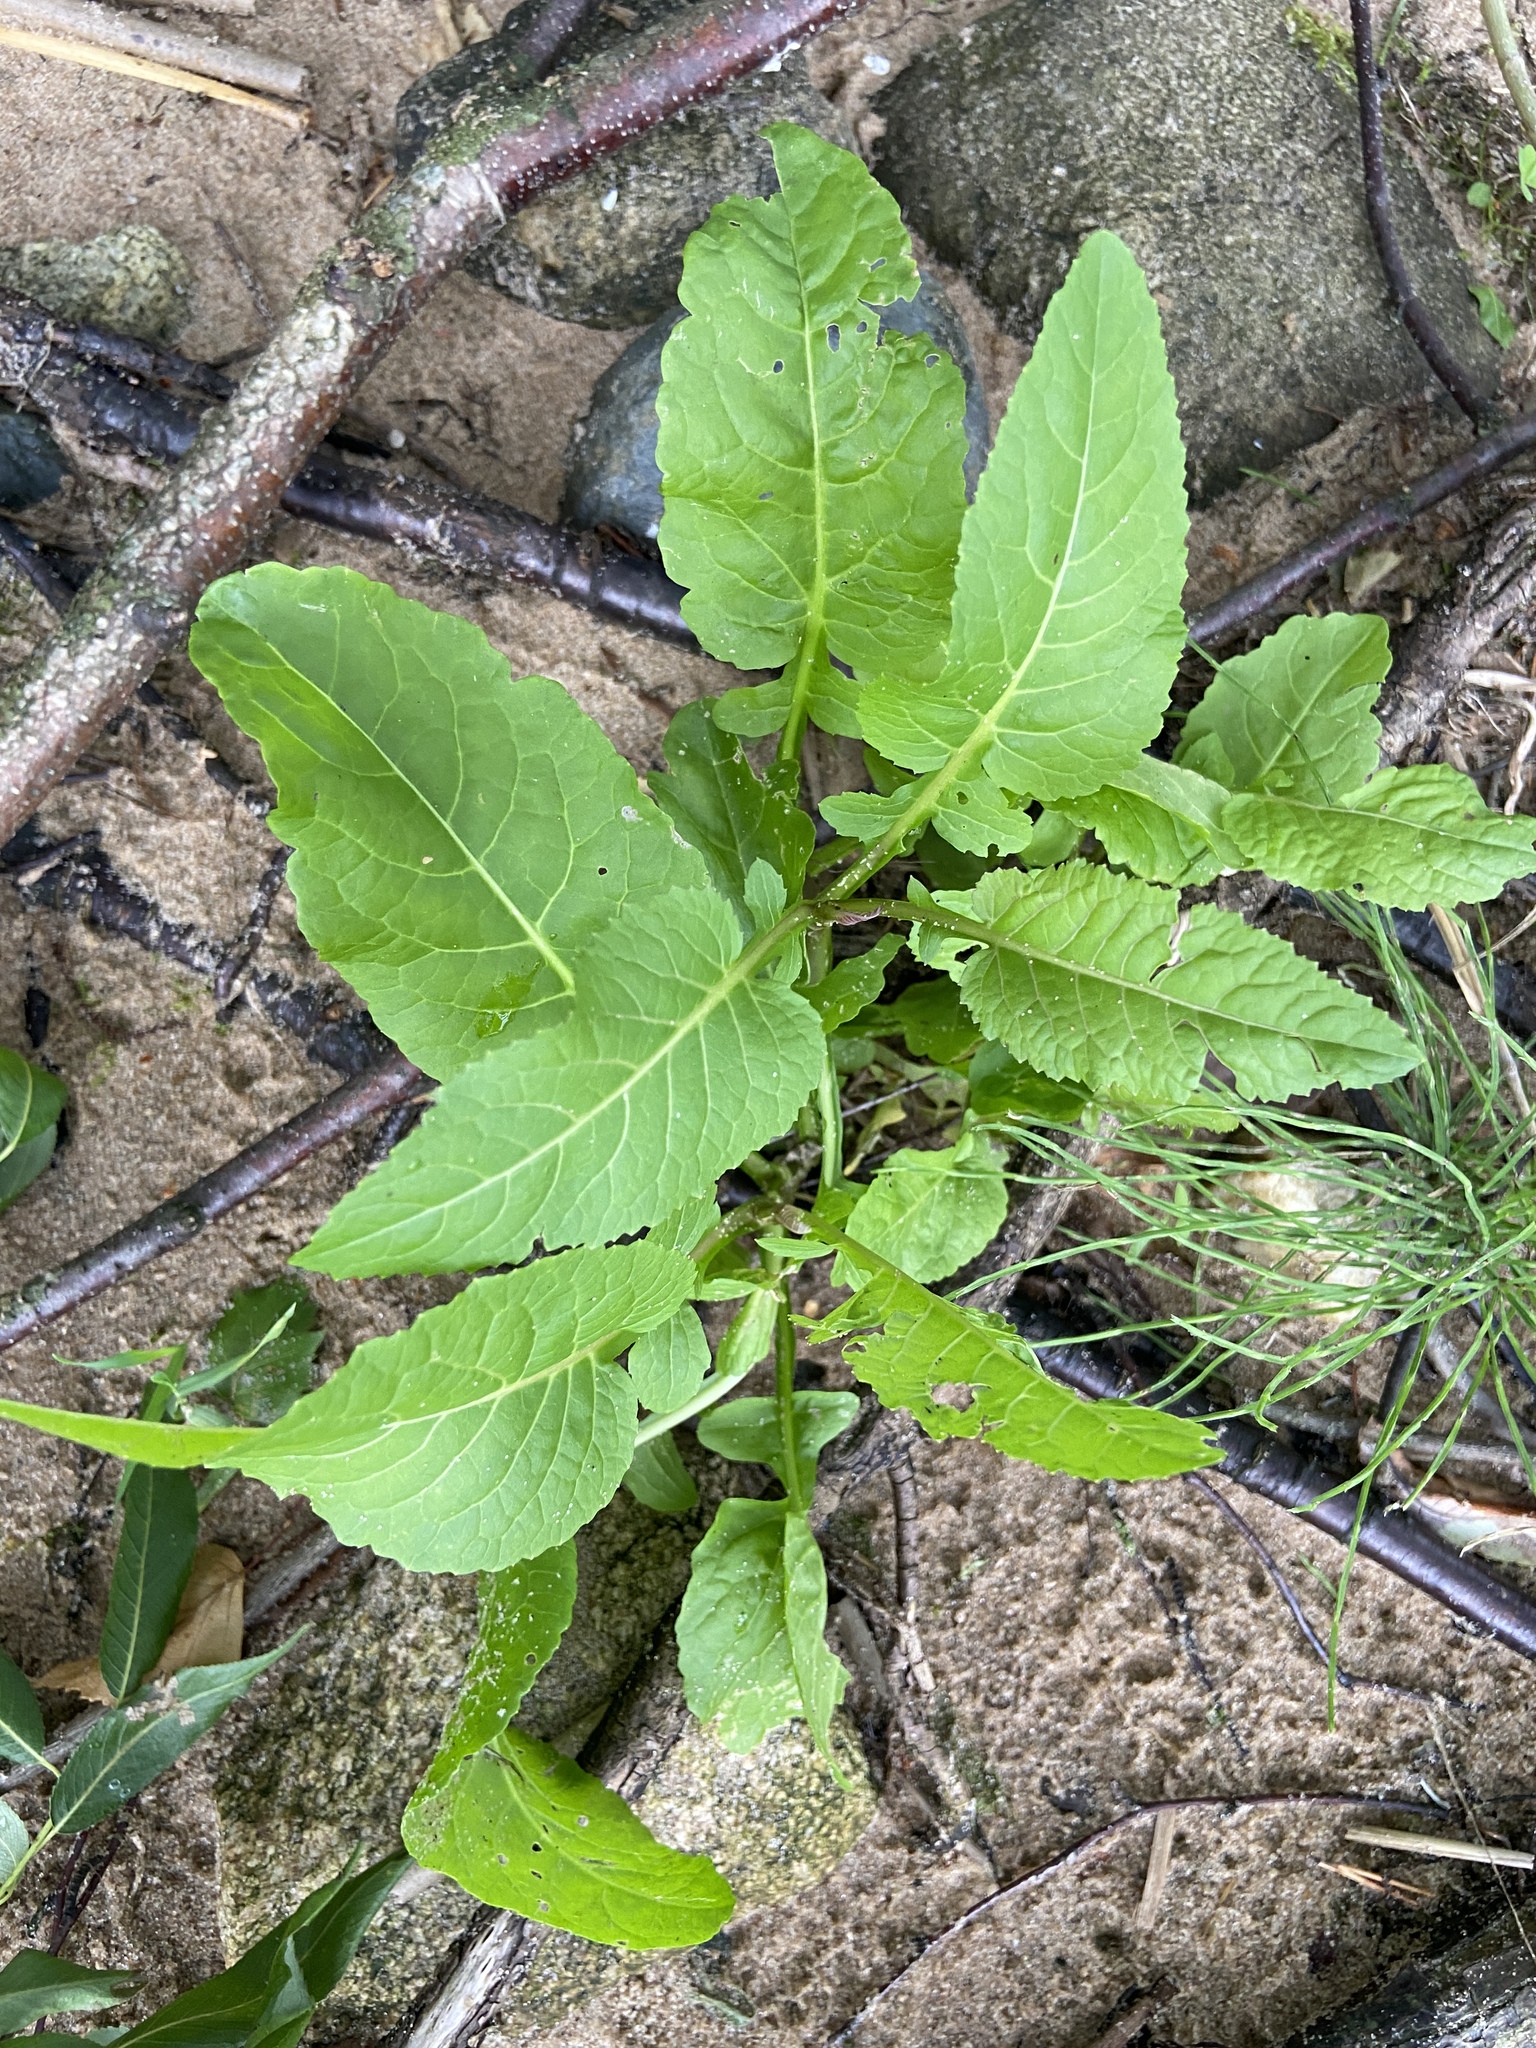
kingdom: Plantae
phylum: Tracheophyta
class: Magnoliopsida
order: Brassicales
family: Brassicaceae
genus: Rorippa
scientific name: Rorippa amphibia
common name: Great yellow-cress
